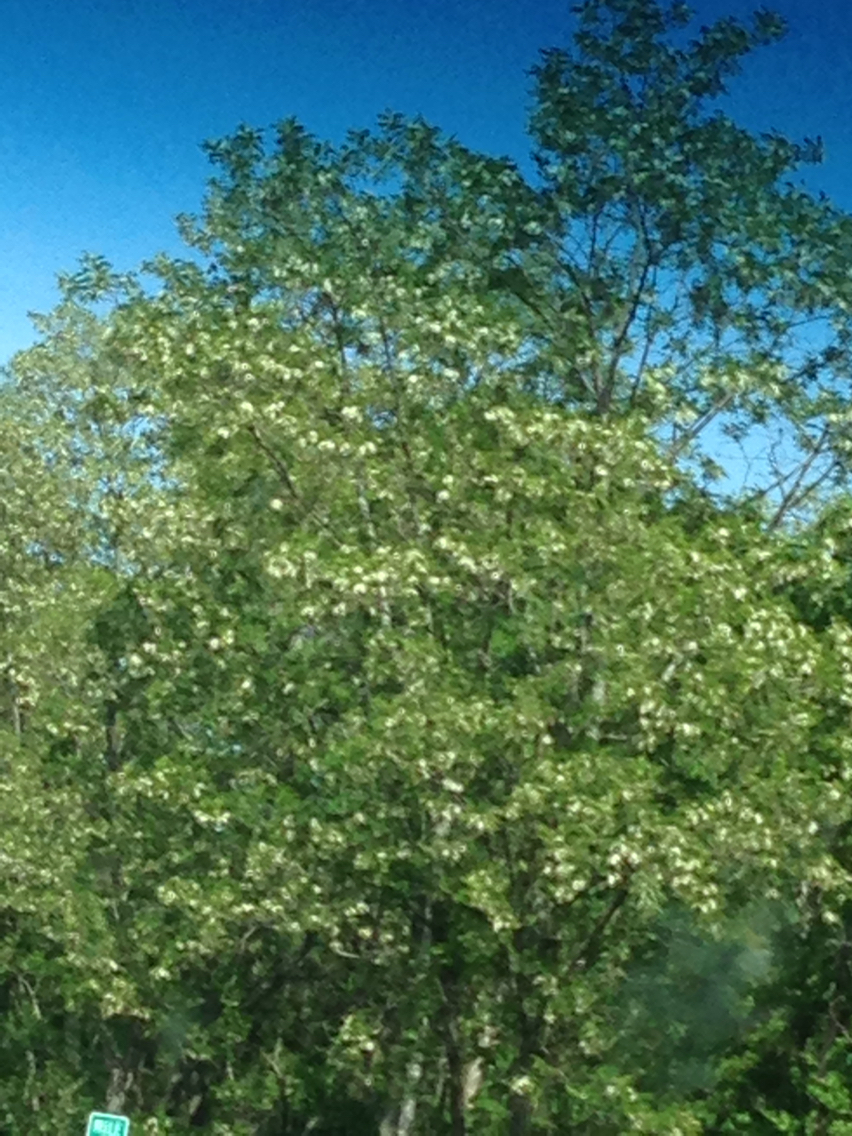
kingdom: Plantae
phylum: Tracheophyta
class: Magnoliopsida
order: Fabales
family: Fabaceae
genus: Robinia
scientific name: Robinia pseudoacacia
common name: Black locust
